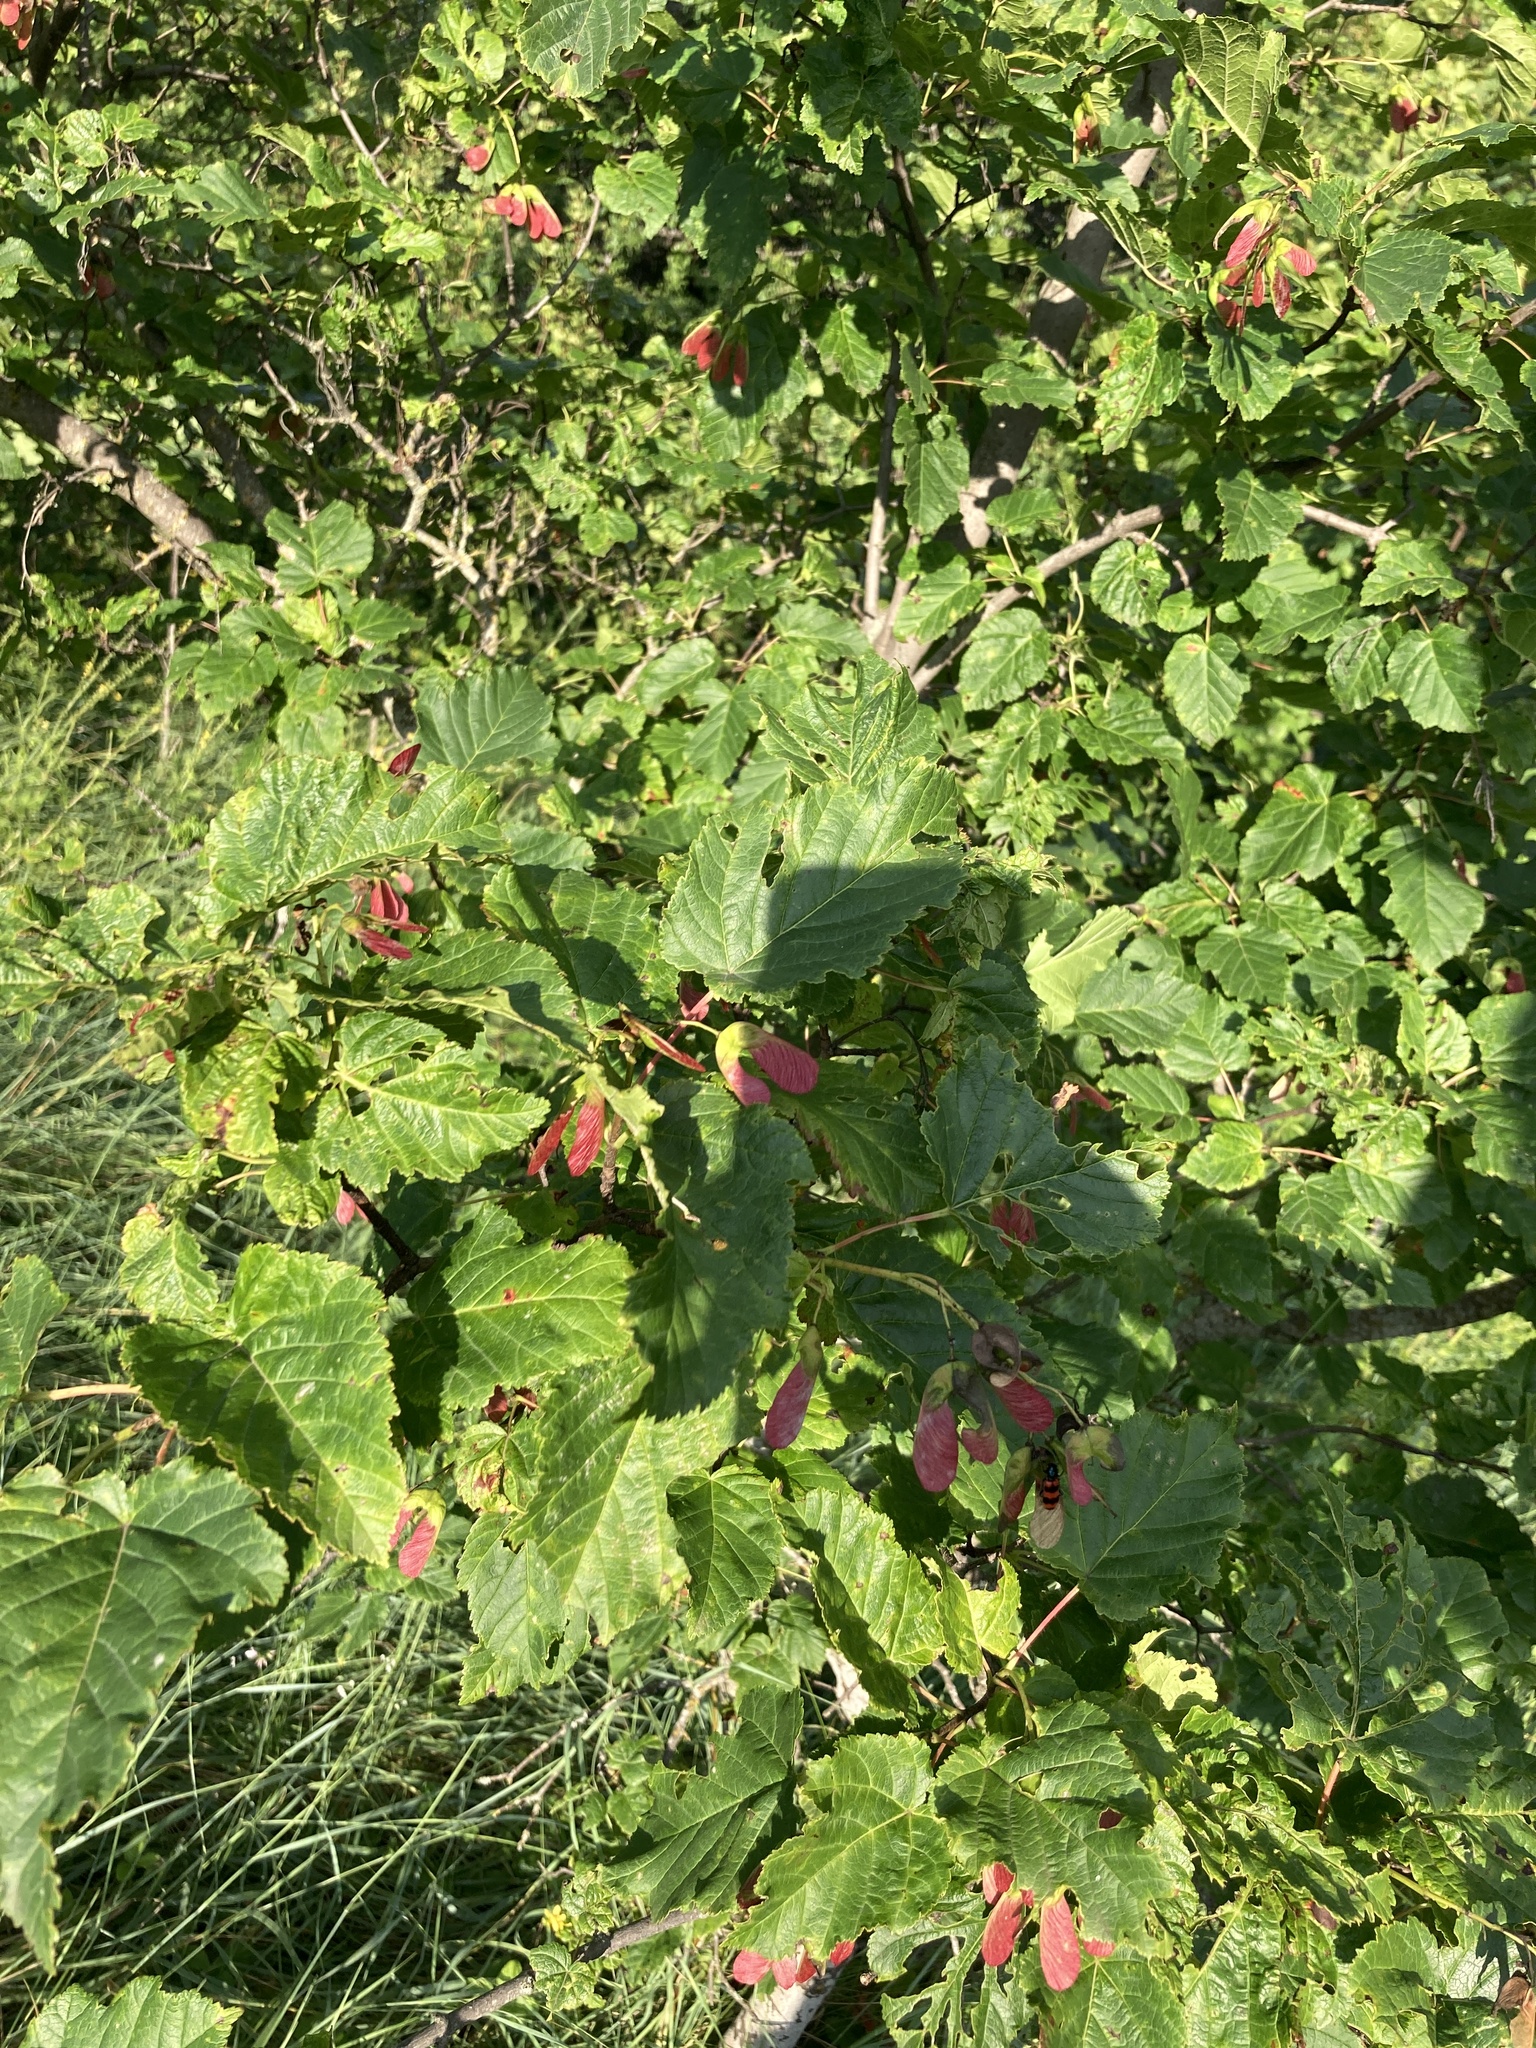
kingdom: Plantae
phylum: Tracheophyta
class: Magnoliopsida
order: Sapindales
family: Sapindaceae
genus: Acer
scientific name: Acer tataricum
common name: Tartar maple
